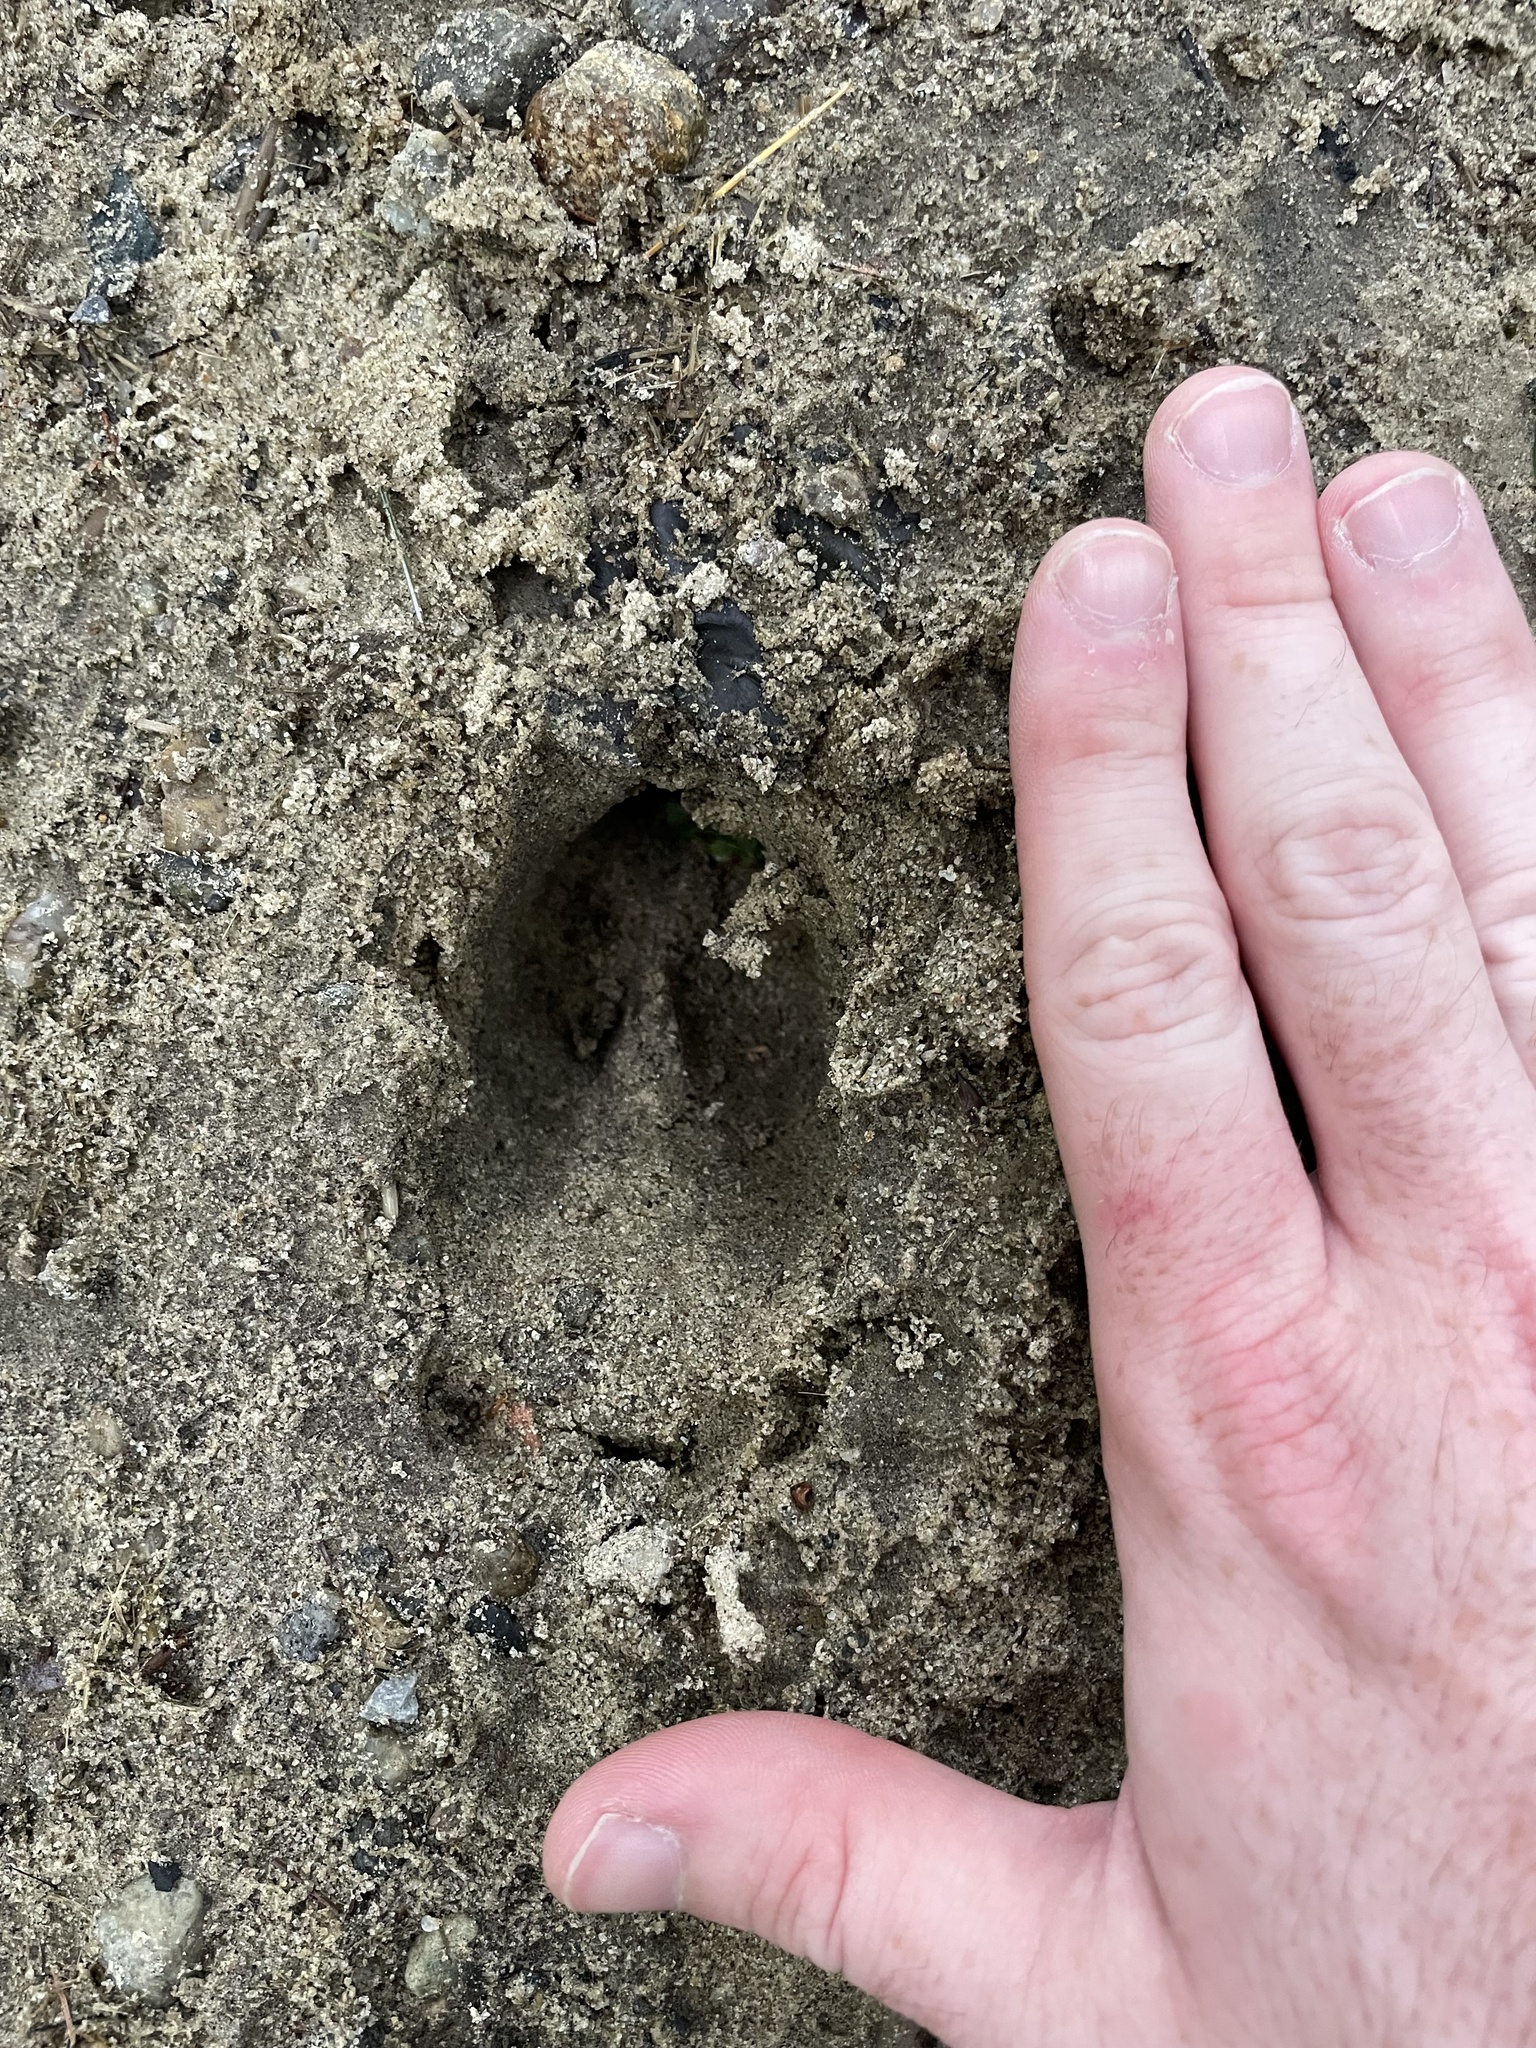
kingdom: Animalia
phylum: Chordata
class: Mammalia
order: Artiodactyla
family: Cervidae
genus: Odocoileus
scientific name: Odocoileus virginianus
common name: White-tailed deer
